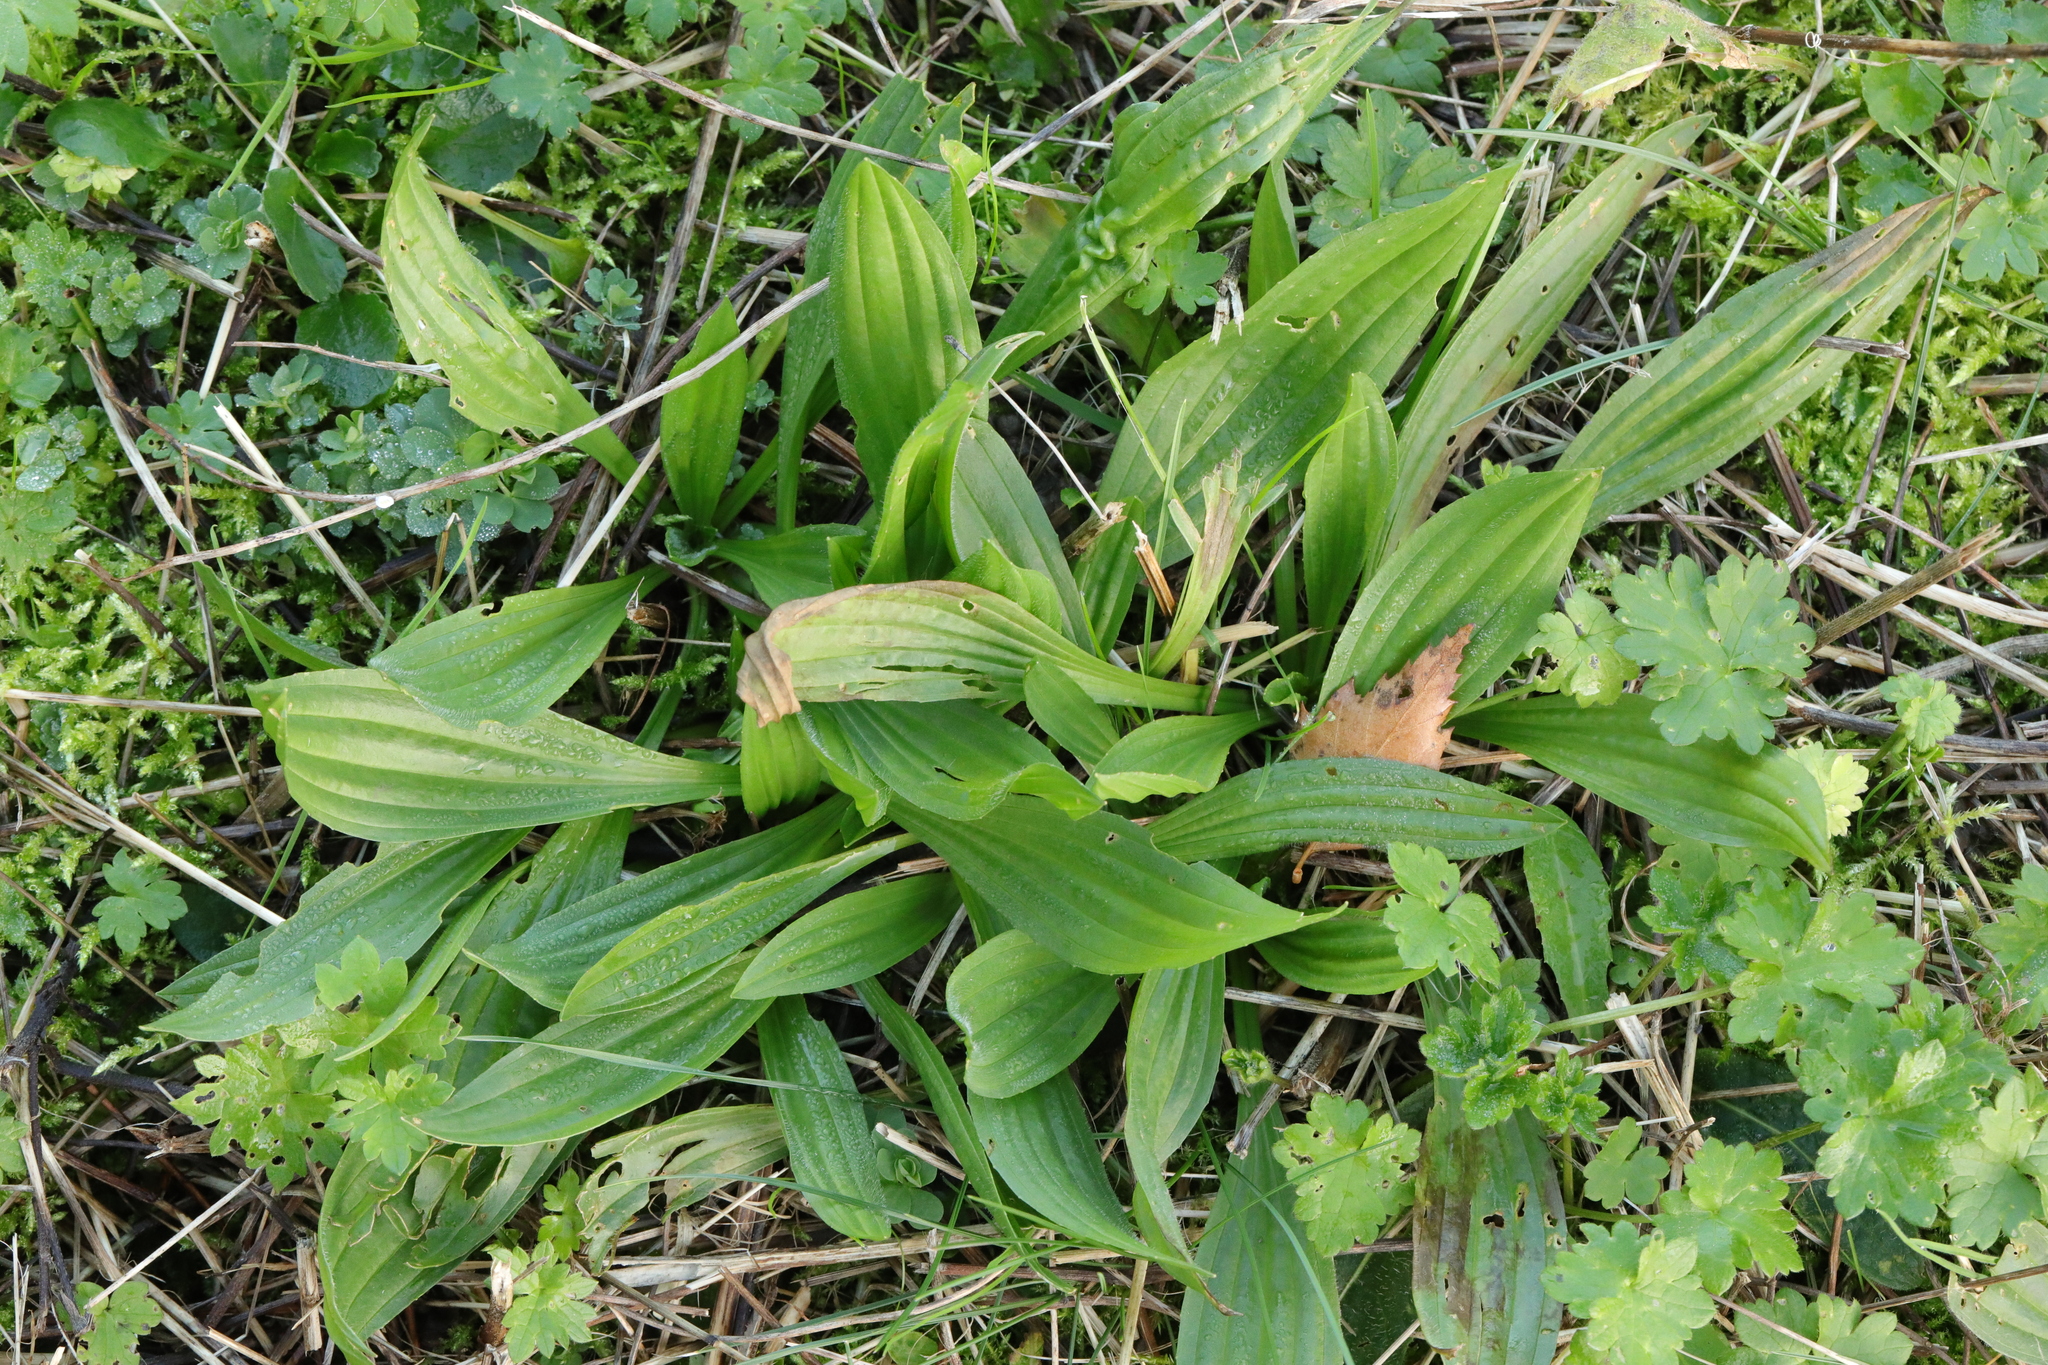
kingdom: Plantae
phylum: Tracheophyta
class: Magnoliopsida
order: Lamiales
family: Plantaginaceae
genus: Plantago
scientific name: Plantago lanceolata
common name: Ribwort plantain
